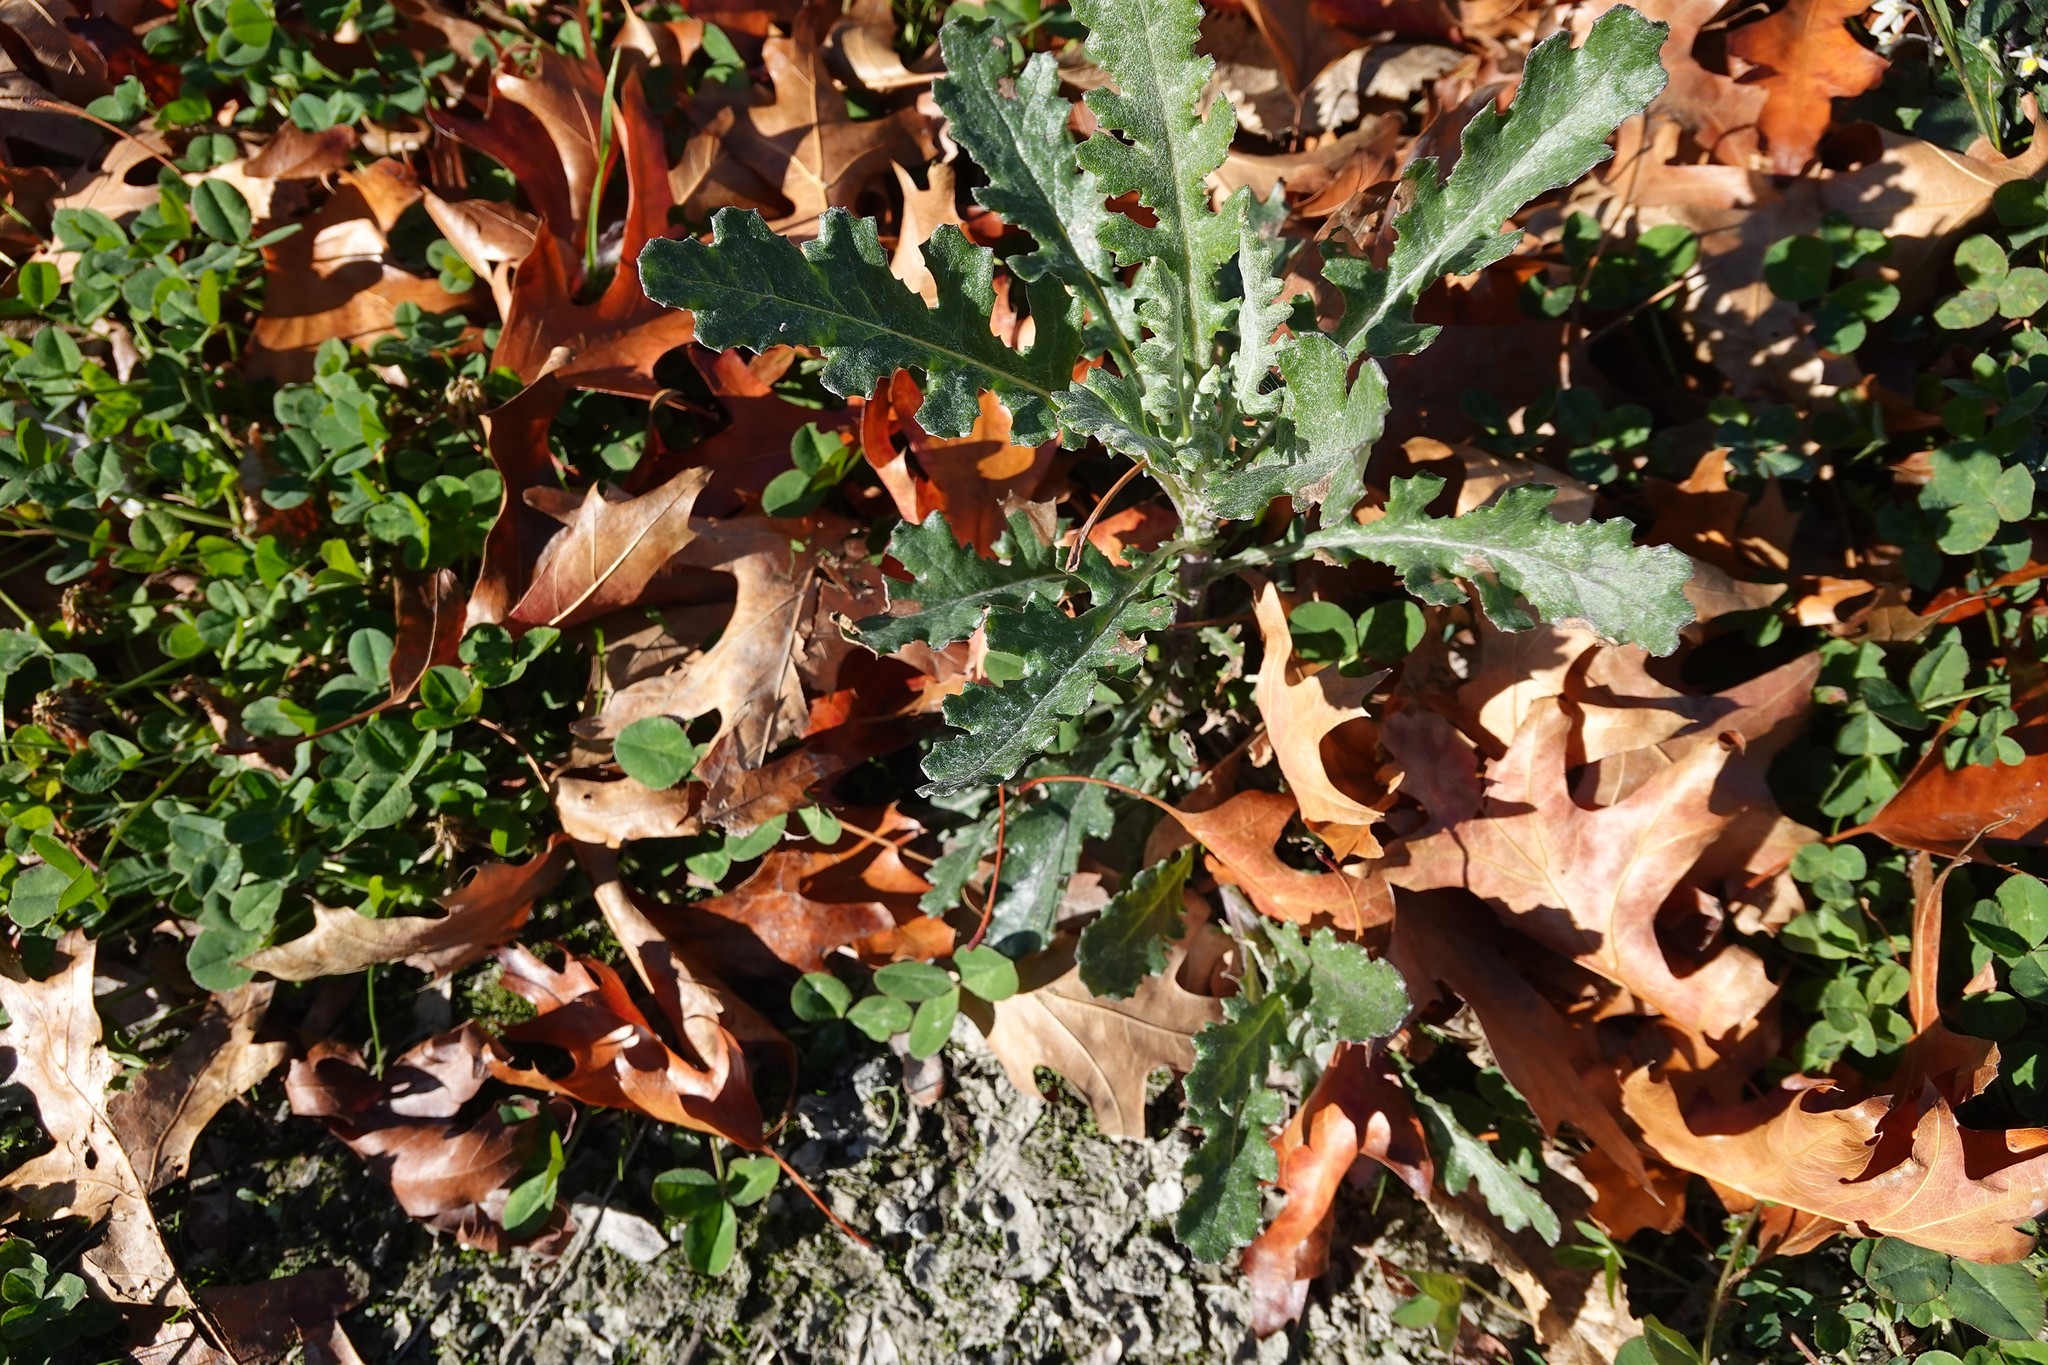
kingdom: Plantae
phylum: Tracheophyta
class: Magnoliopsida
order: Asterales
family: Asteraceae
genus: Senecio
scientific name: Senecio glomeratus
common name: Cutleaf burnweed
